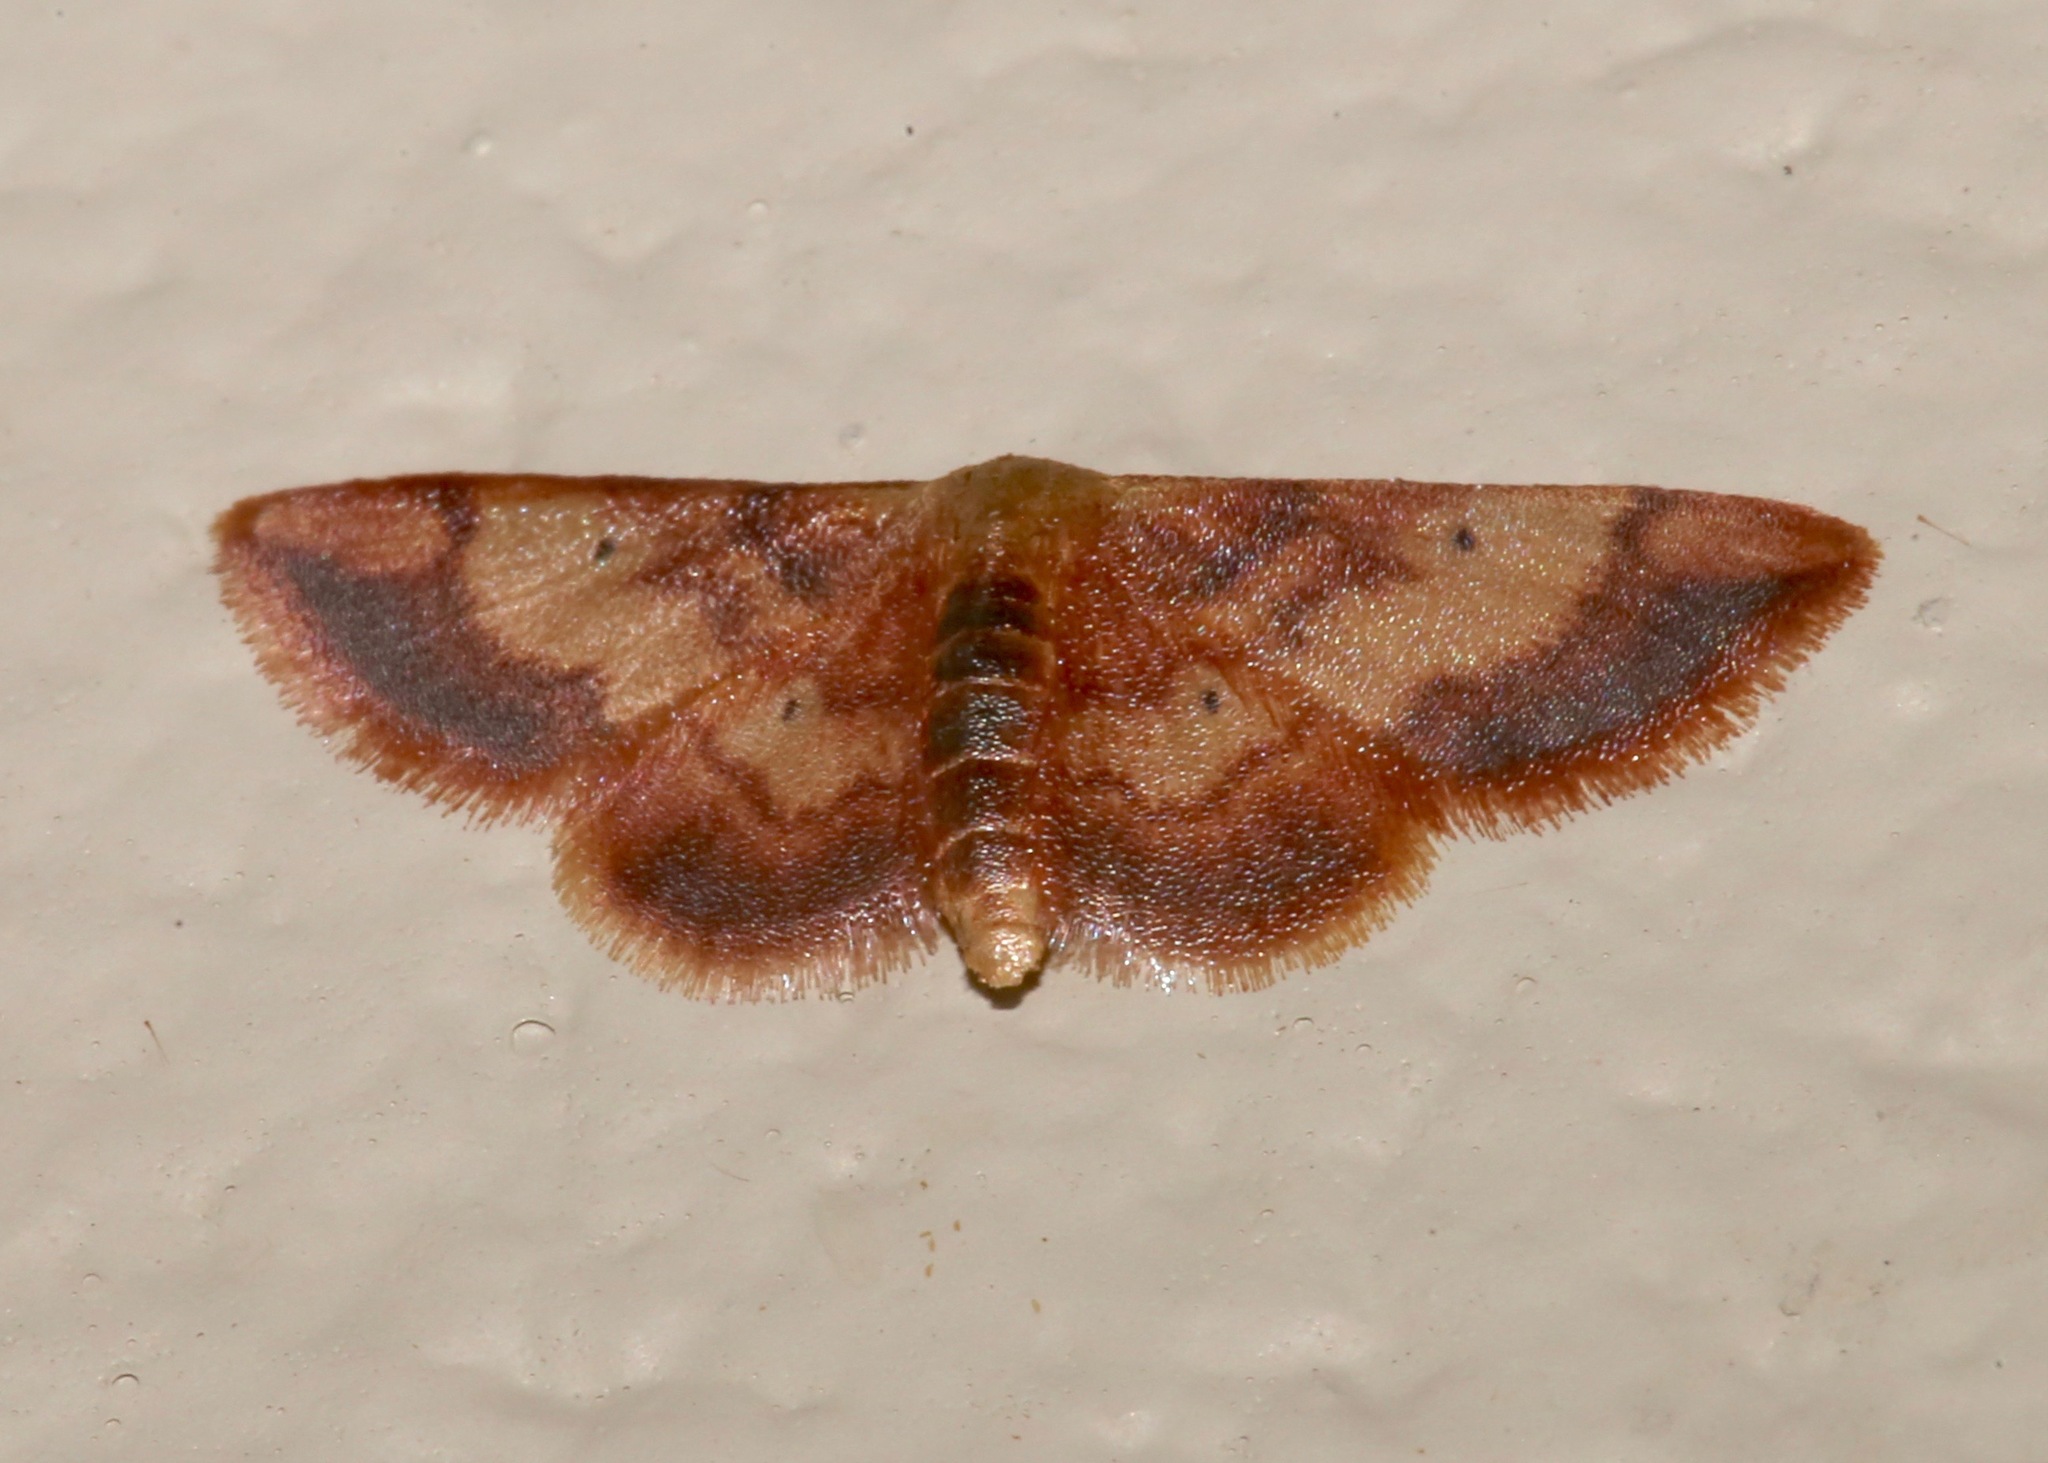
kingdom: Animalia
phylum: Arthropoda
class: Insecta
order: Lepidoptera
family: Geometridae
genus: Idaea
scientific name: Idaea demissaria
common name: Red-bordered wave
